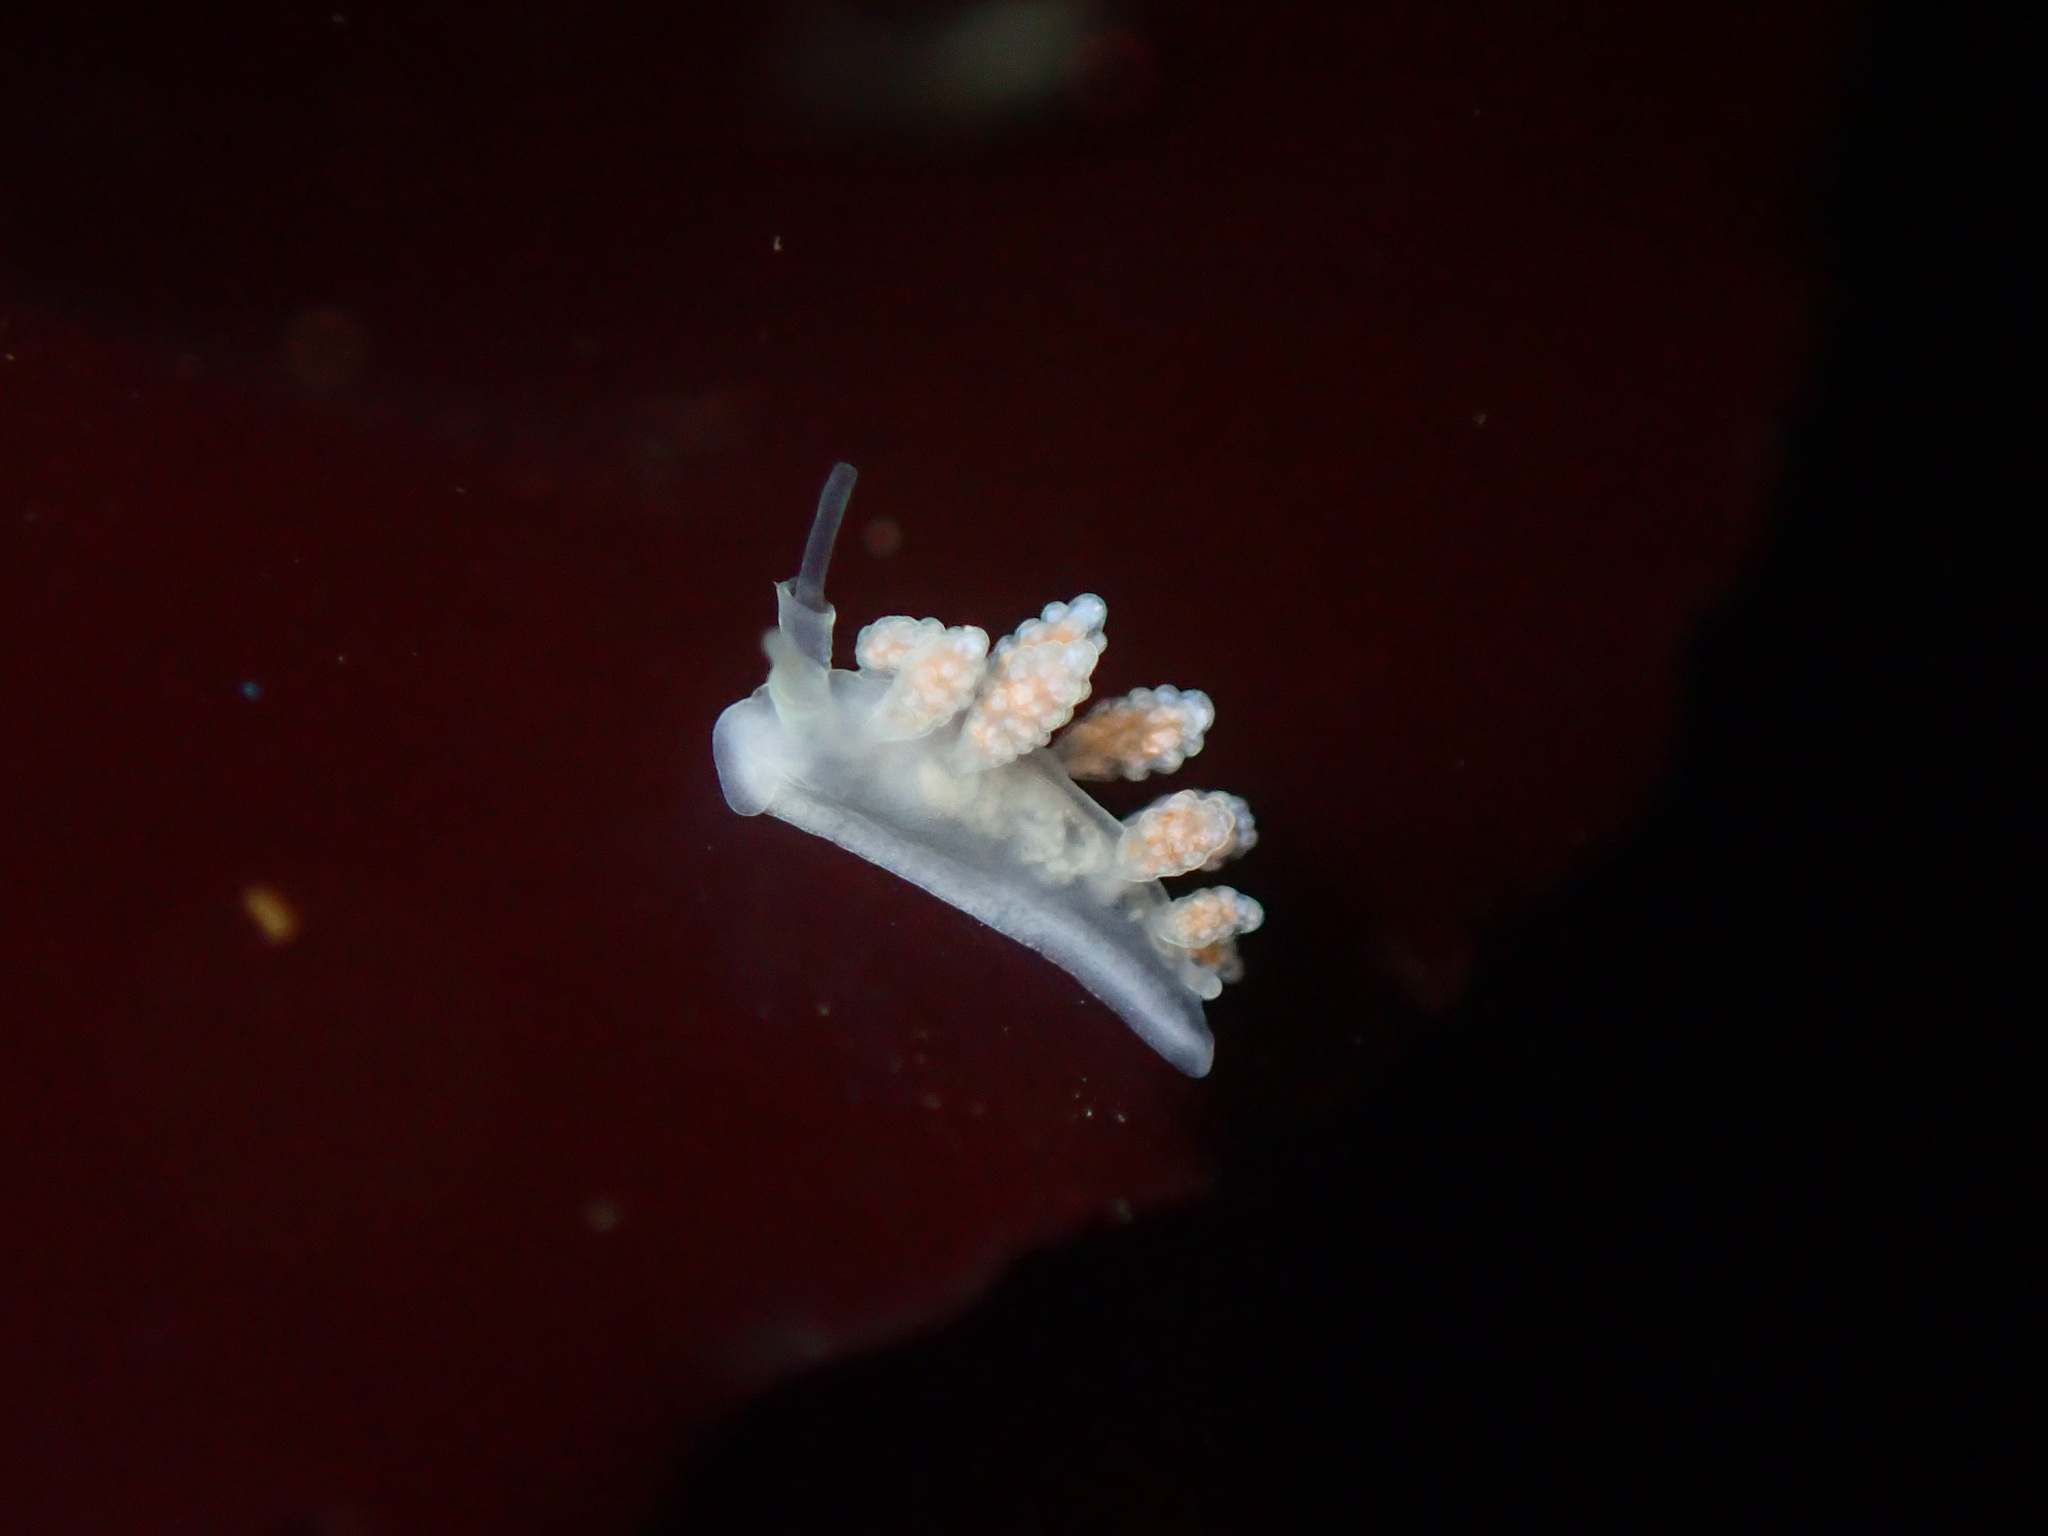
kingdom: Animalia
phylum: Mollusca
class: Gastropoda
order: Nudibranchia
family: Dotidae
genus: Doto
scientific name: Doto amyra
